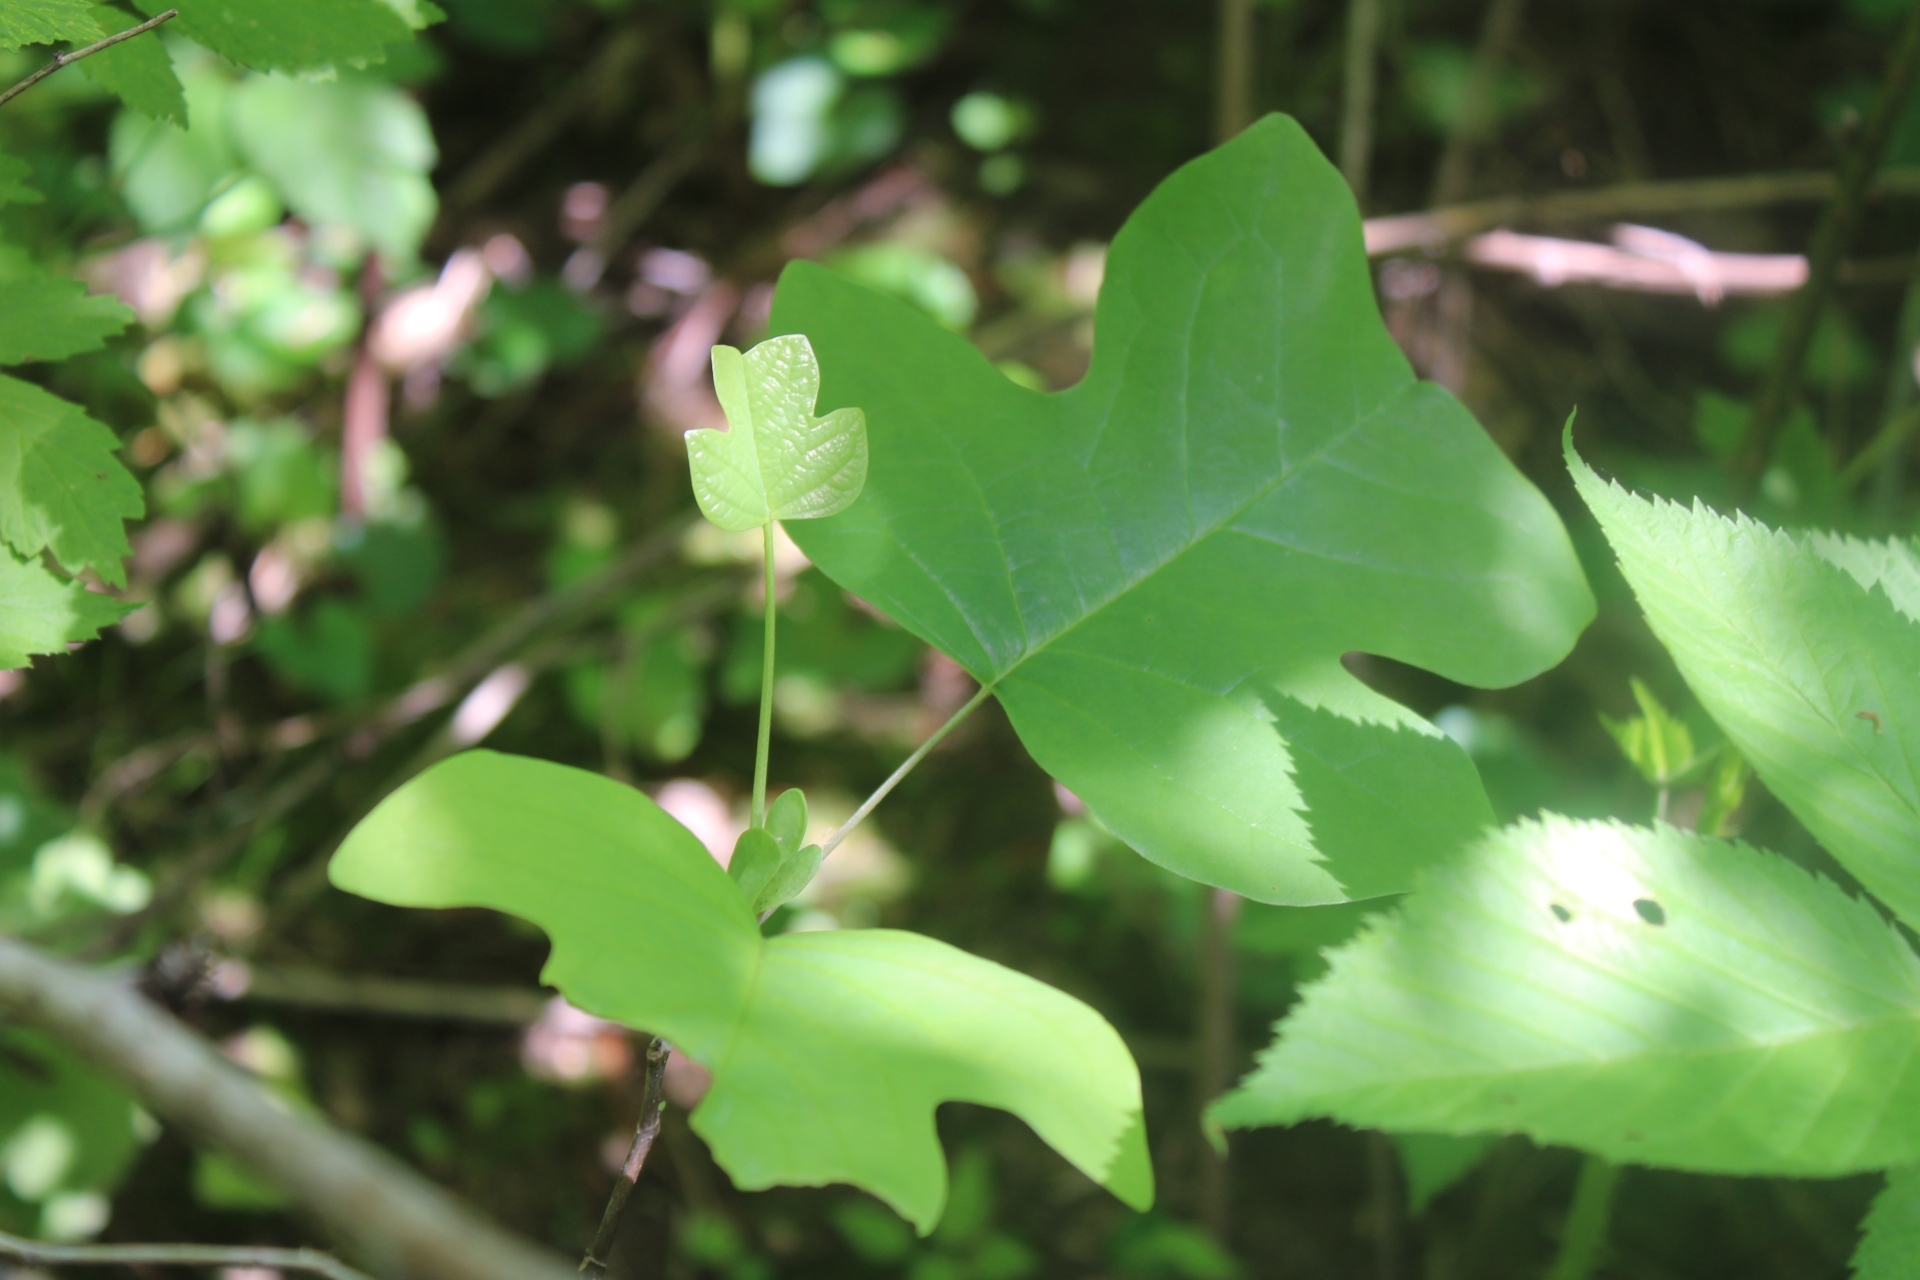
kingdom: Plantae
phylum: Tracheophyta
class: Magnoliopsida
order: Magnoliales
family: Magnoliaceae
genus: Liriodendron
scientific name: Liriodendron tulipifera
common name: Tulip tree
